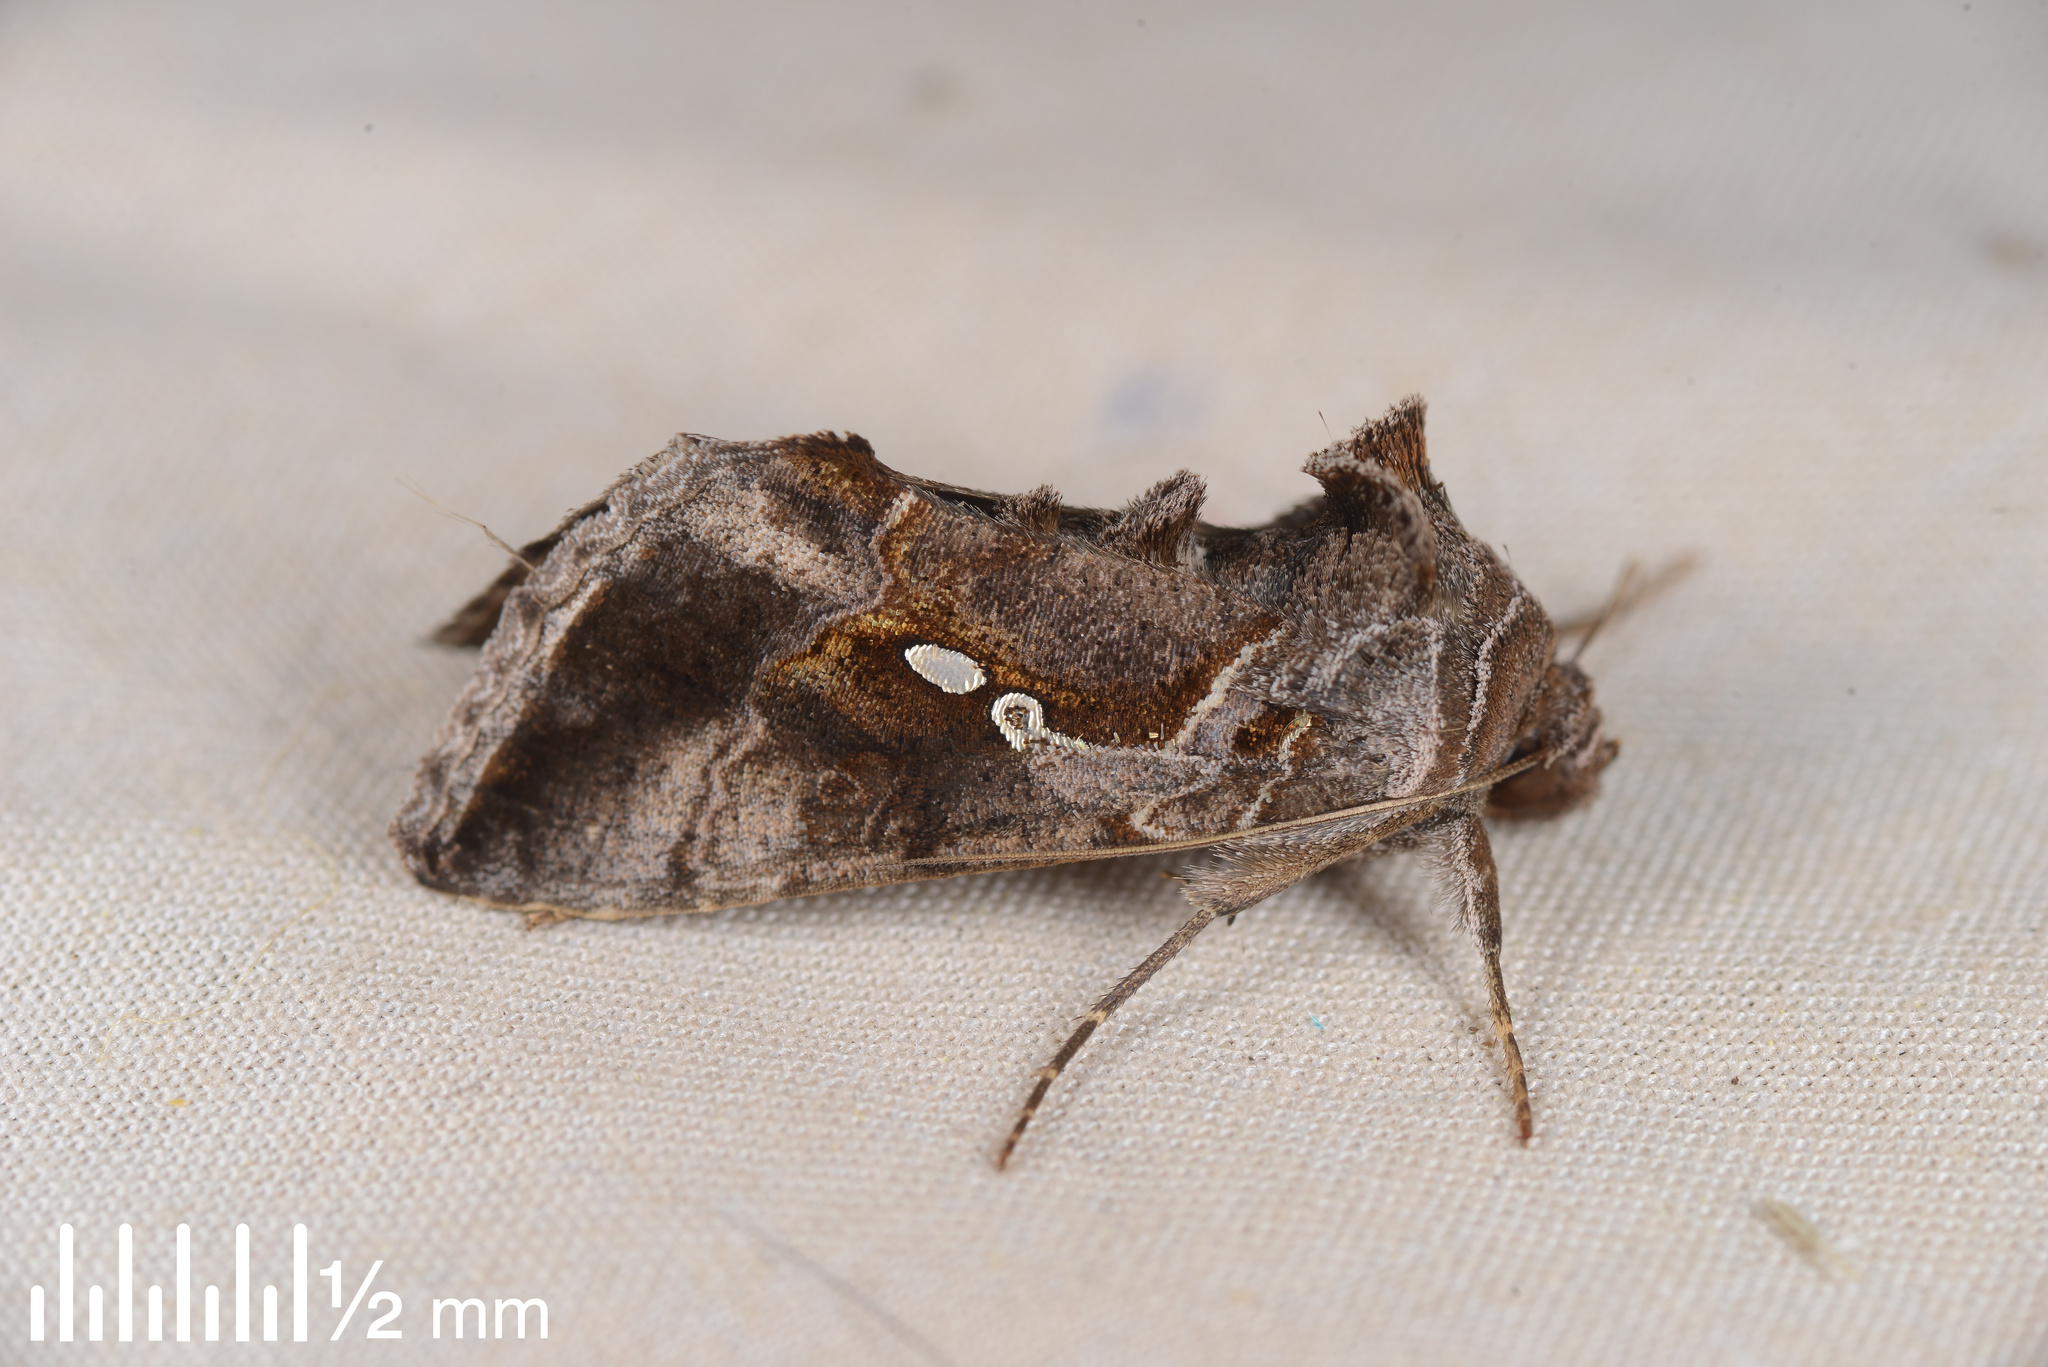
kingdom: Animalia
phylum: Arthropoda
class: Insecta
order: Lepidoptera
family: Noctuidae
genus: Chrysodeixis
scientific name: Chrysodeixis eriosoma
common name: Green garden looper
